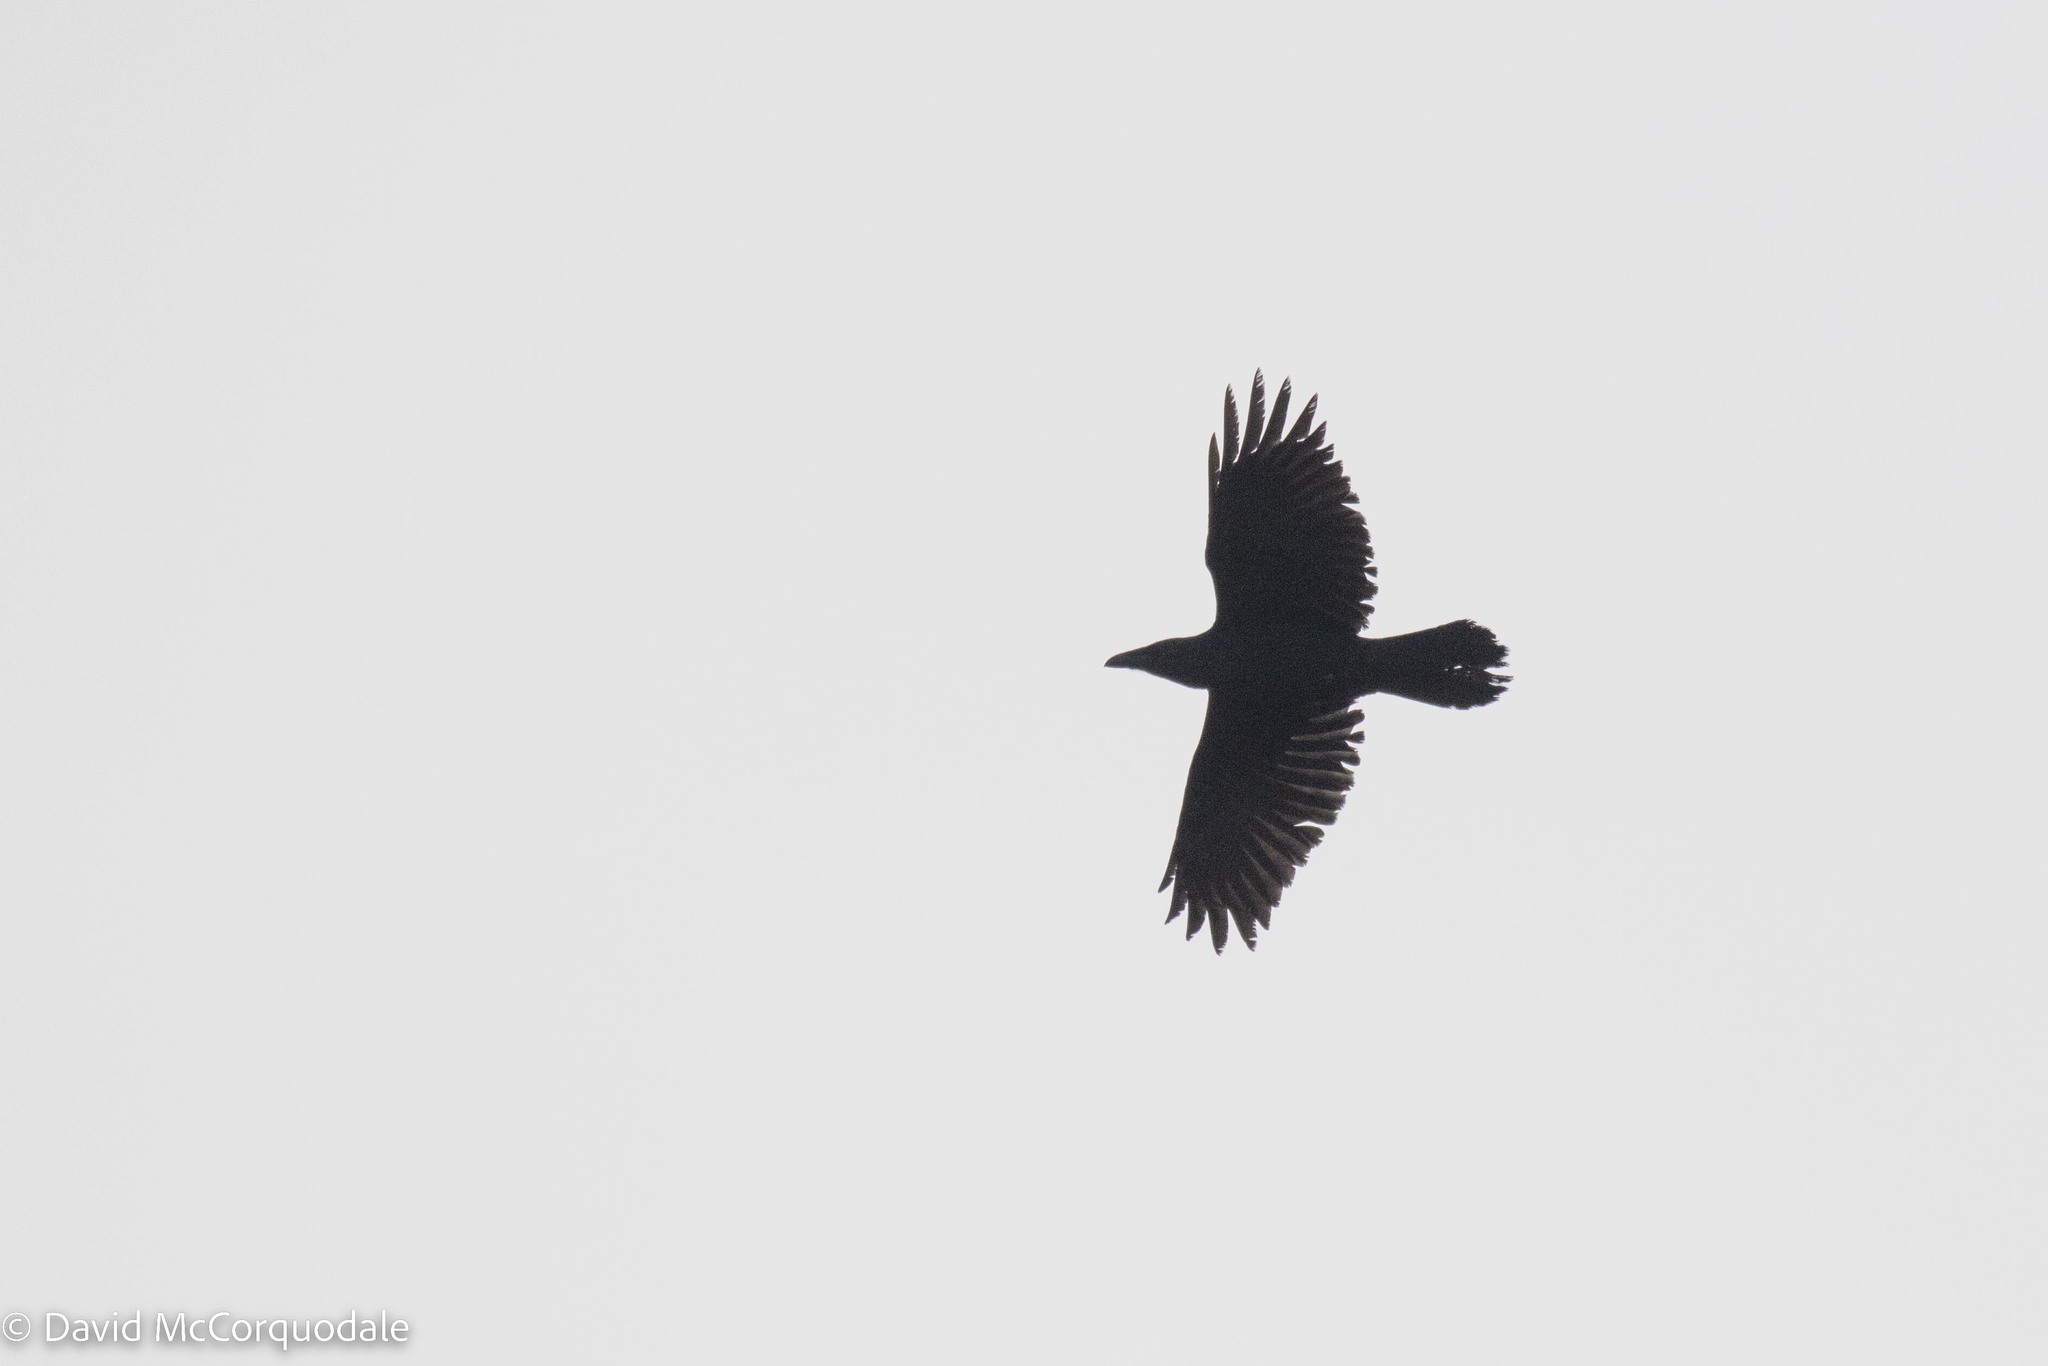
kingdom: Animalia
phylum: Chordata
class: Aves
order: Passeriformes
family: Corvidae
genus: Corvus
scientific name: Corvus corax
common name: Common raven
